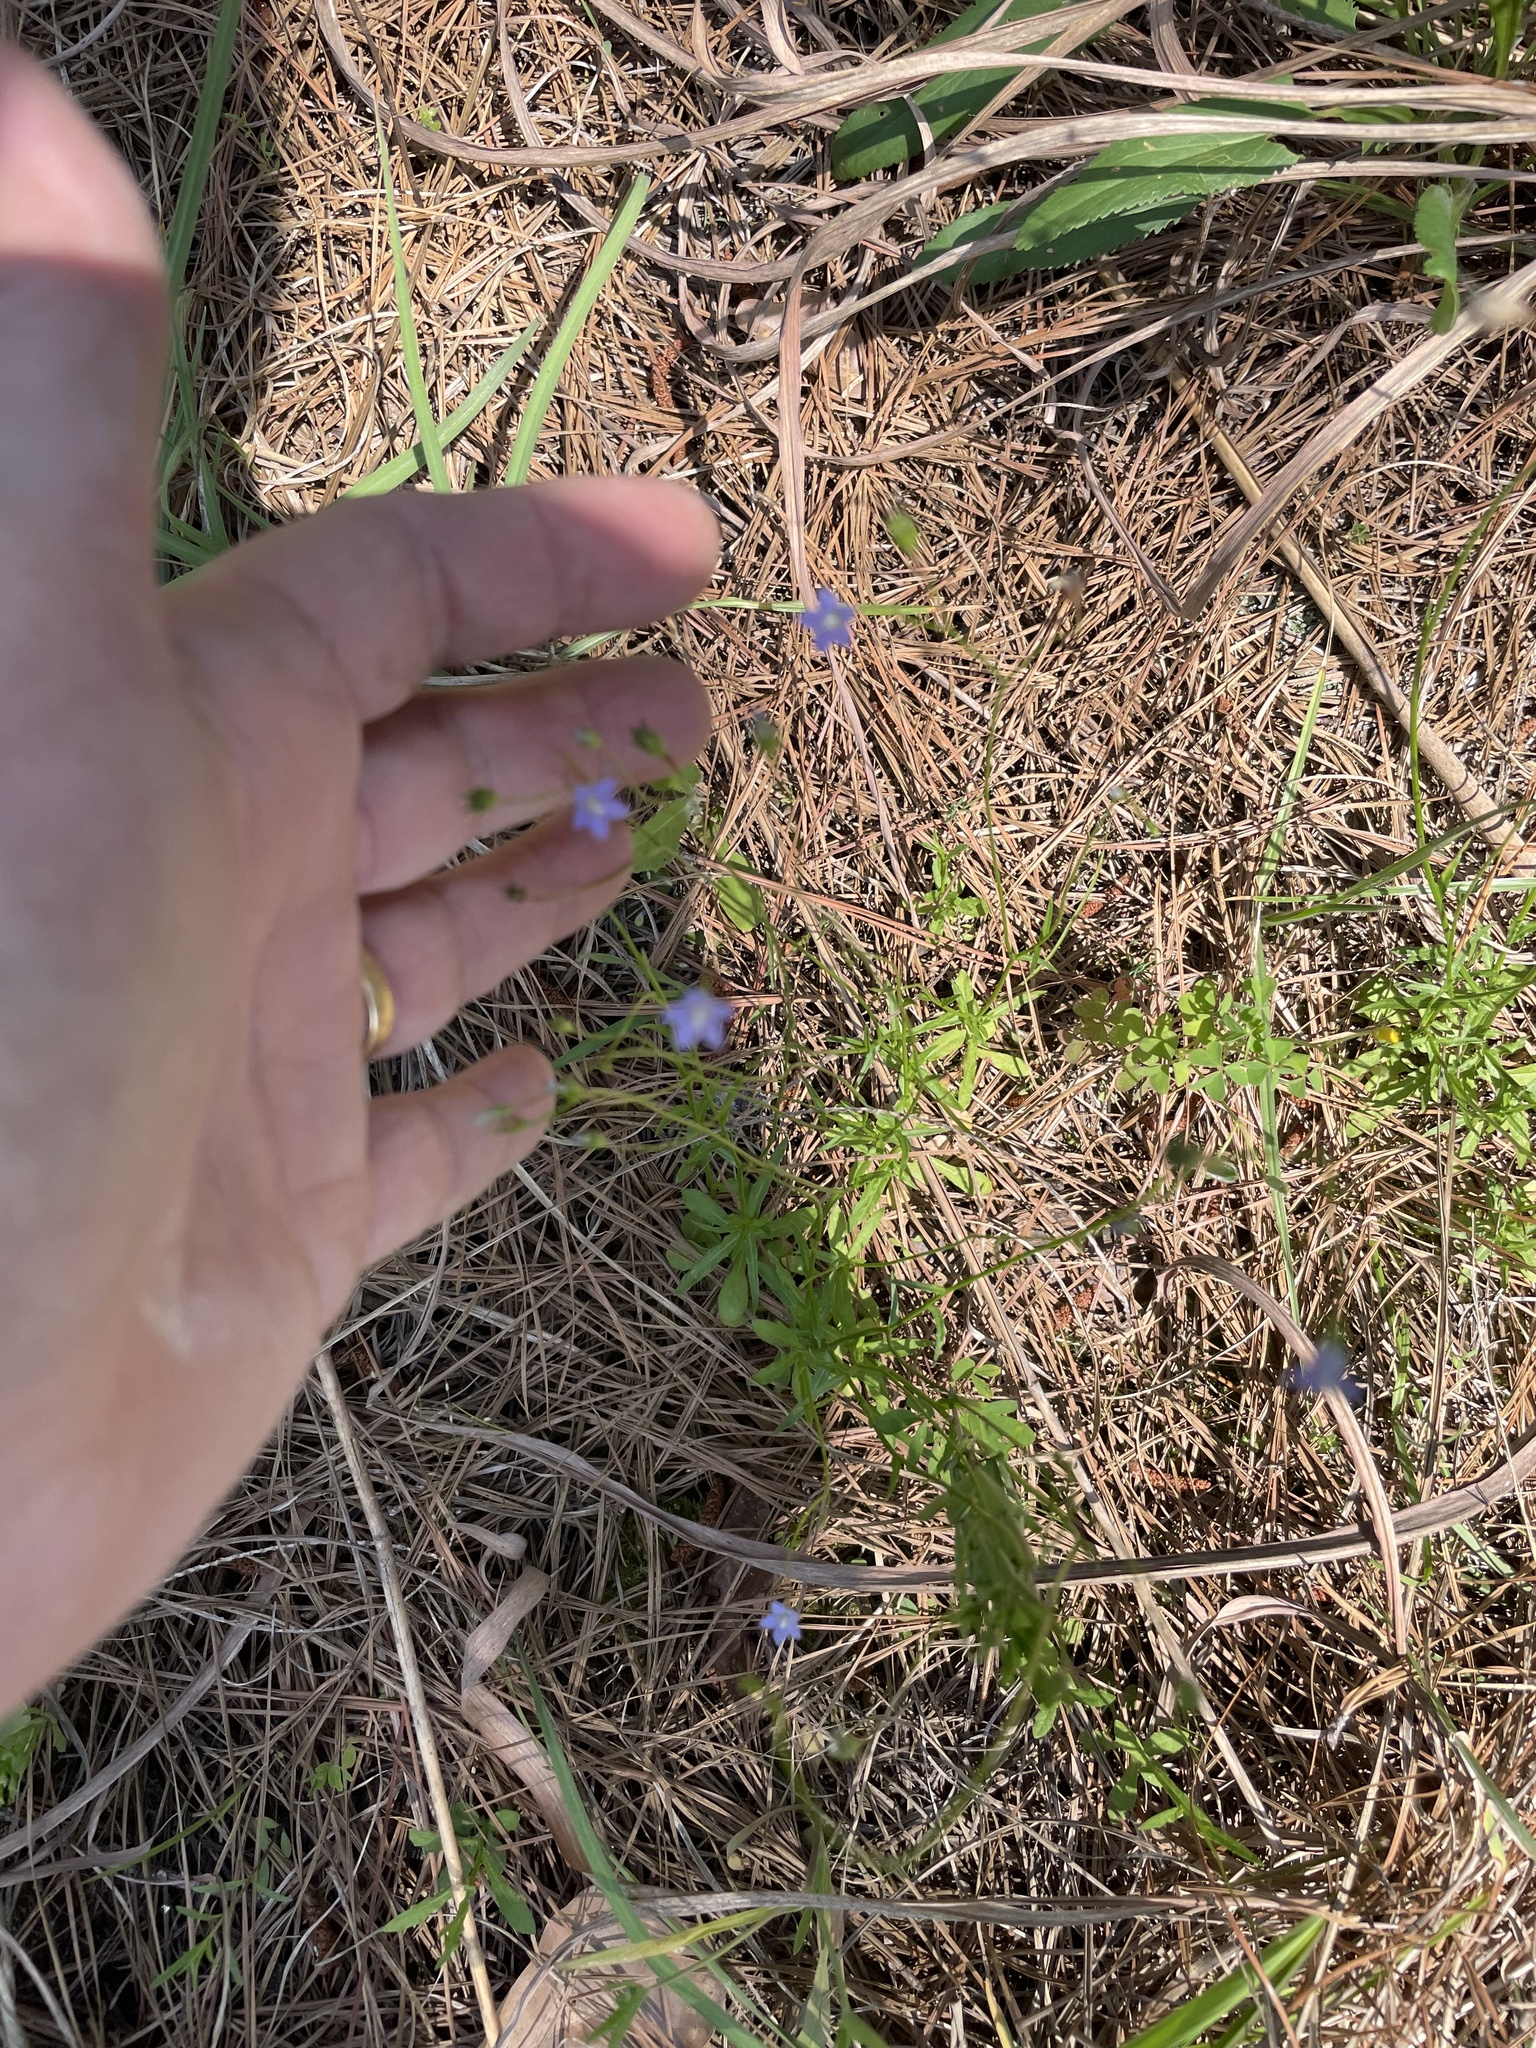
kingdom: Plantae
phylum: Tracheophyta
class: Magnoliopsida
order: Asterales
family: Campanulaceae
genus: Wahlenbergia
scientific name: Wahlenbergia marginata
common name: Southern rockbell
